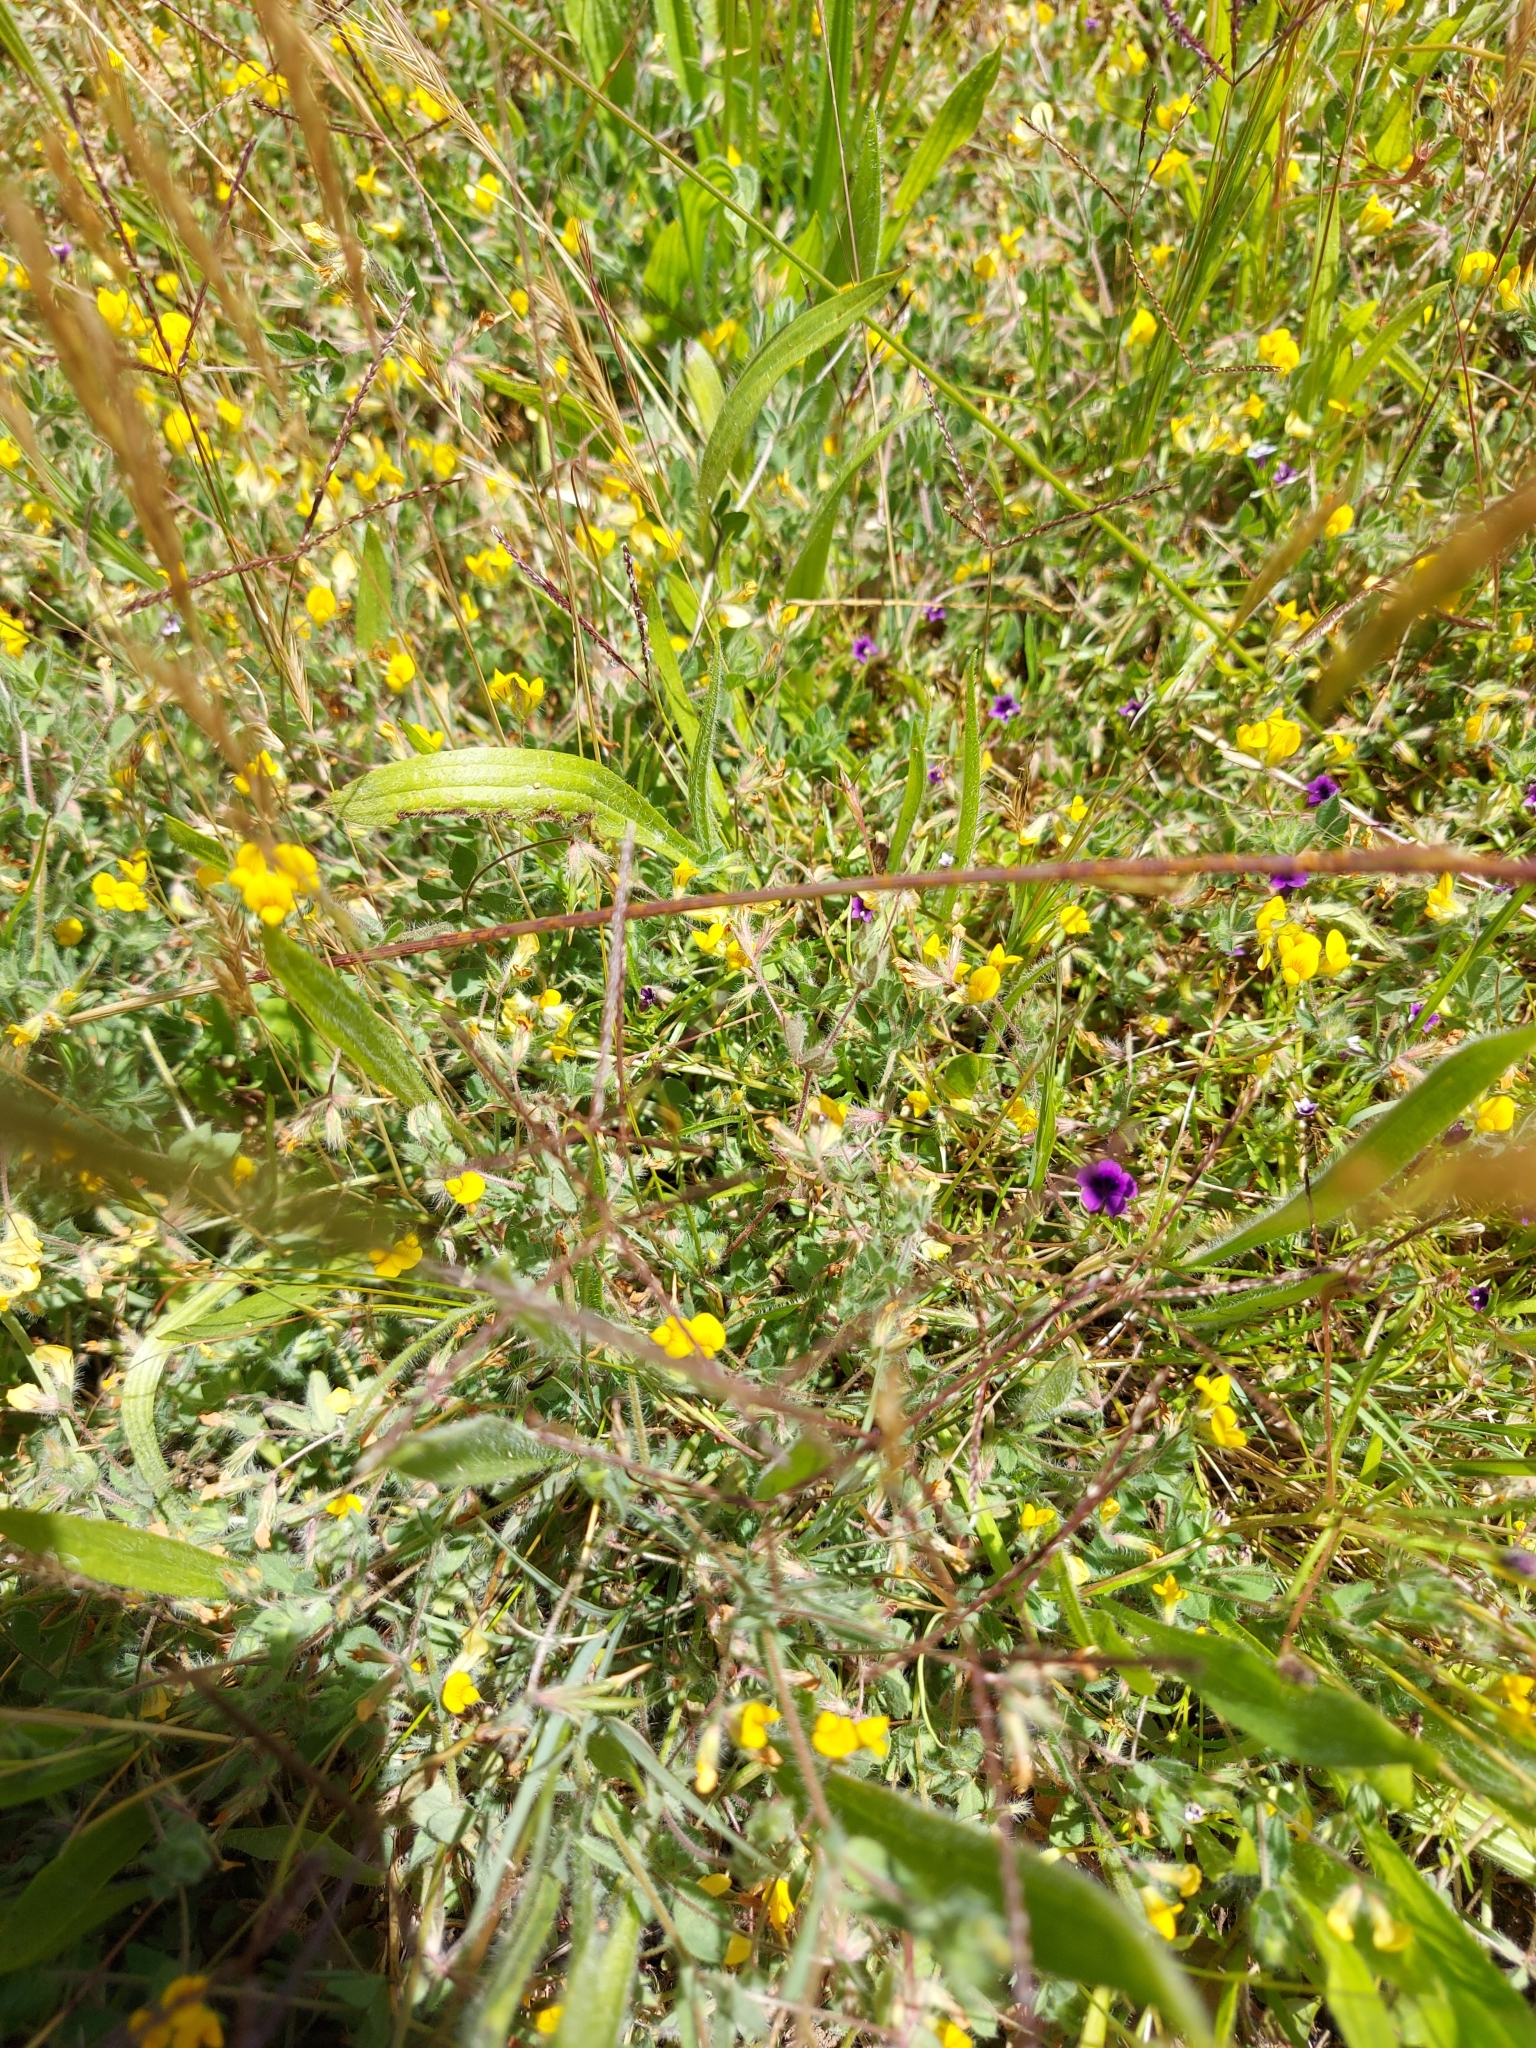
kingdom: Plantae
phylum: Tracheophyta
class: Magnoliopsida
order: Asterales
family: Campanulaceae
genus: Monopsis
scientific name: Monopsis debilis
